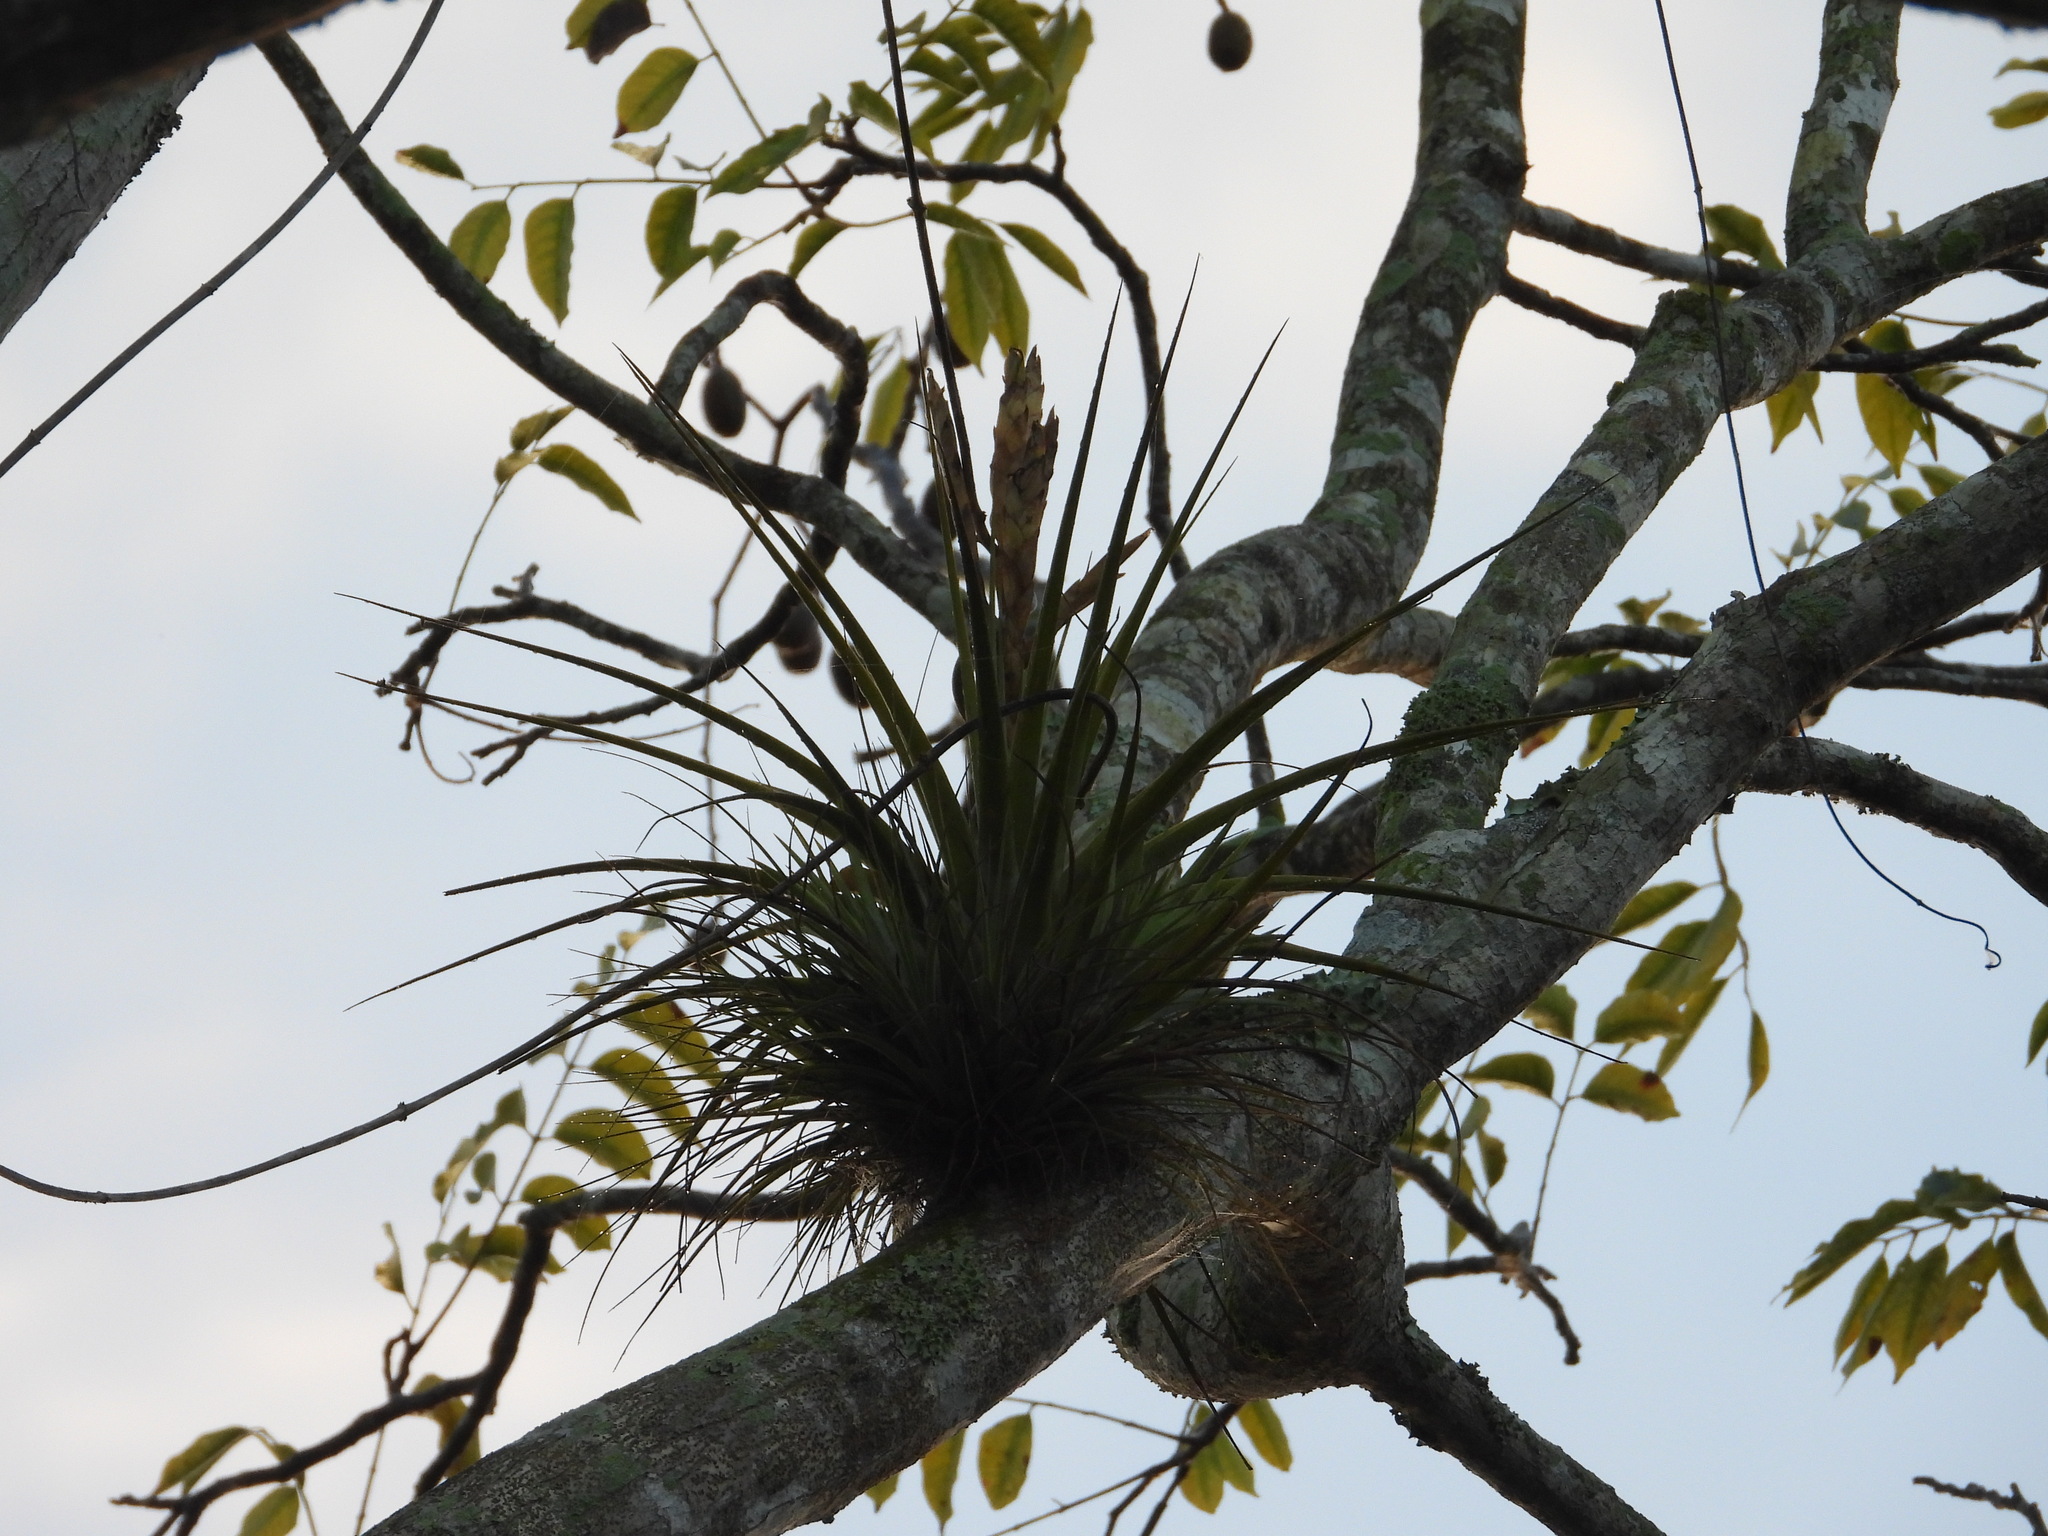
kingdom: Plantae
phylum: Tracheophyta
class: Liliopsida
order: Poales
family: Bromeliaceae
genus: Tillandsia
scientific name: Tillandsia fasciculata
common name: Giant airplant
